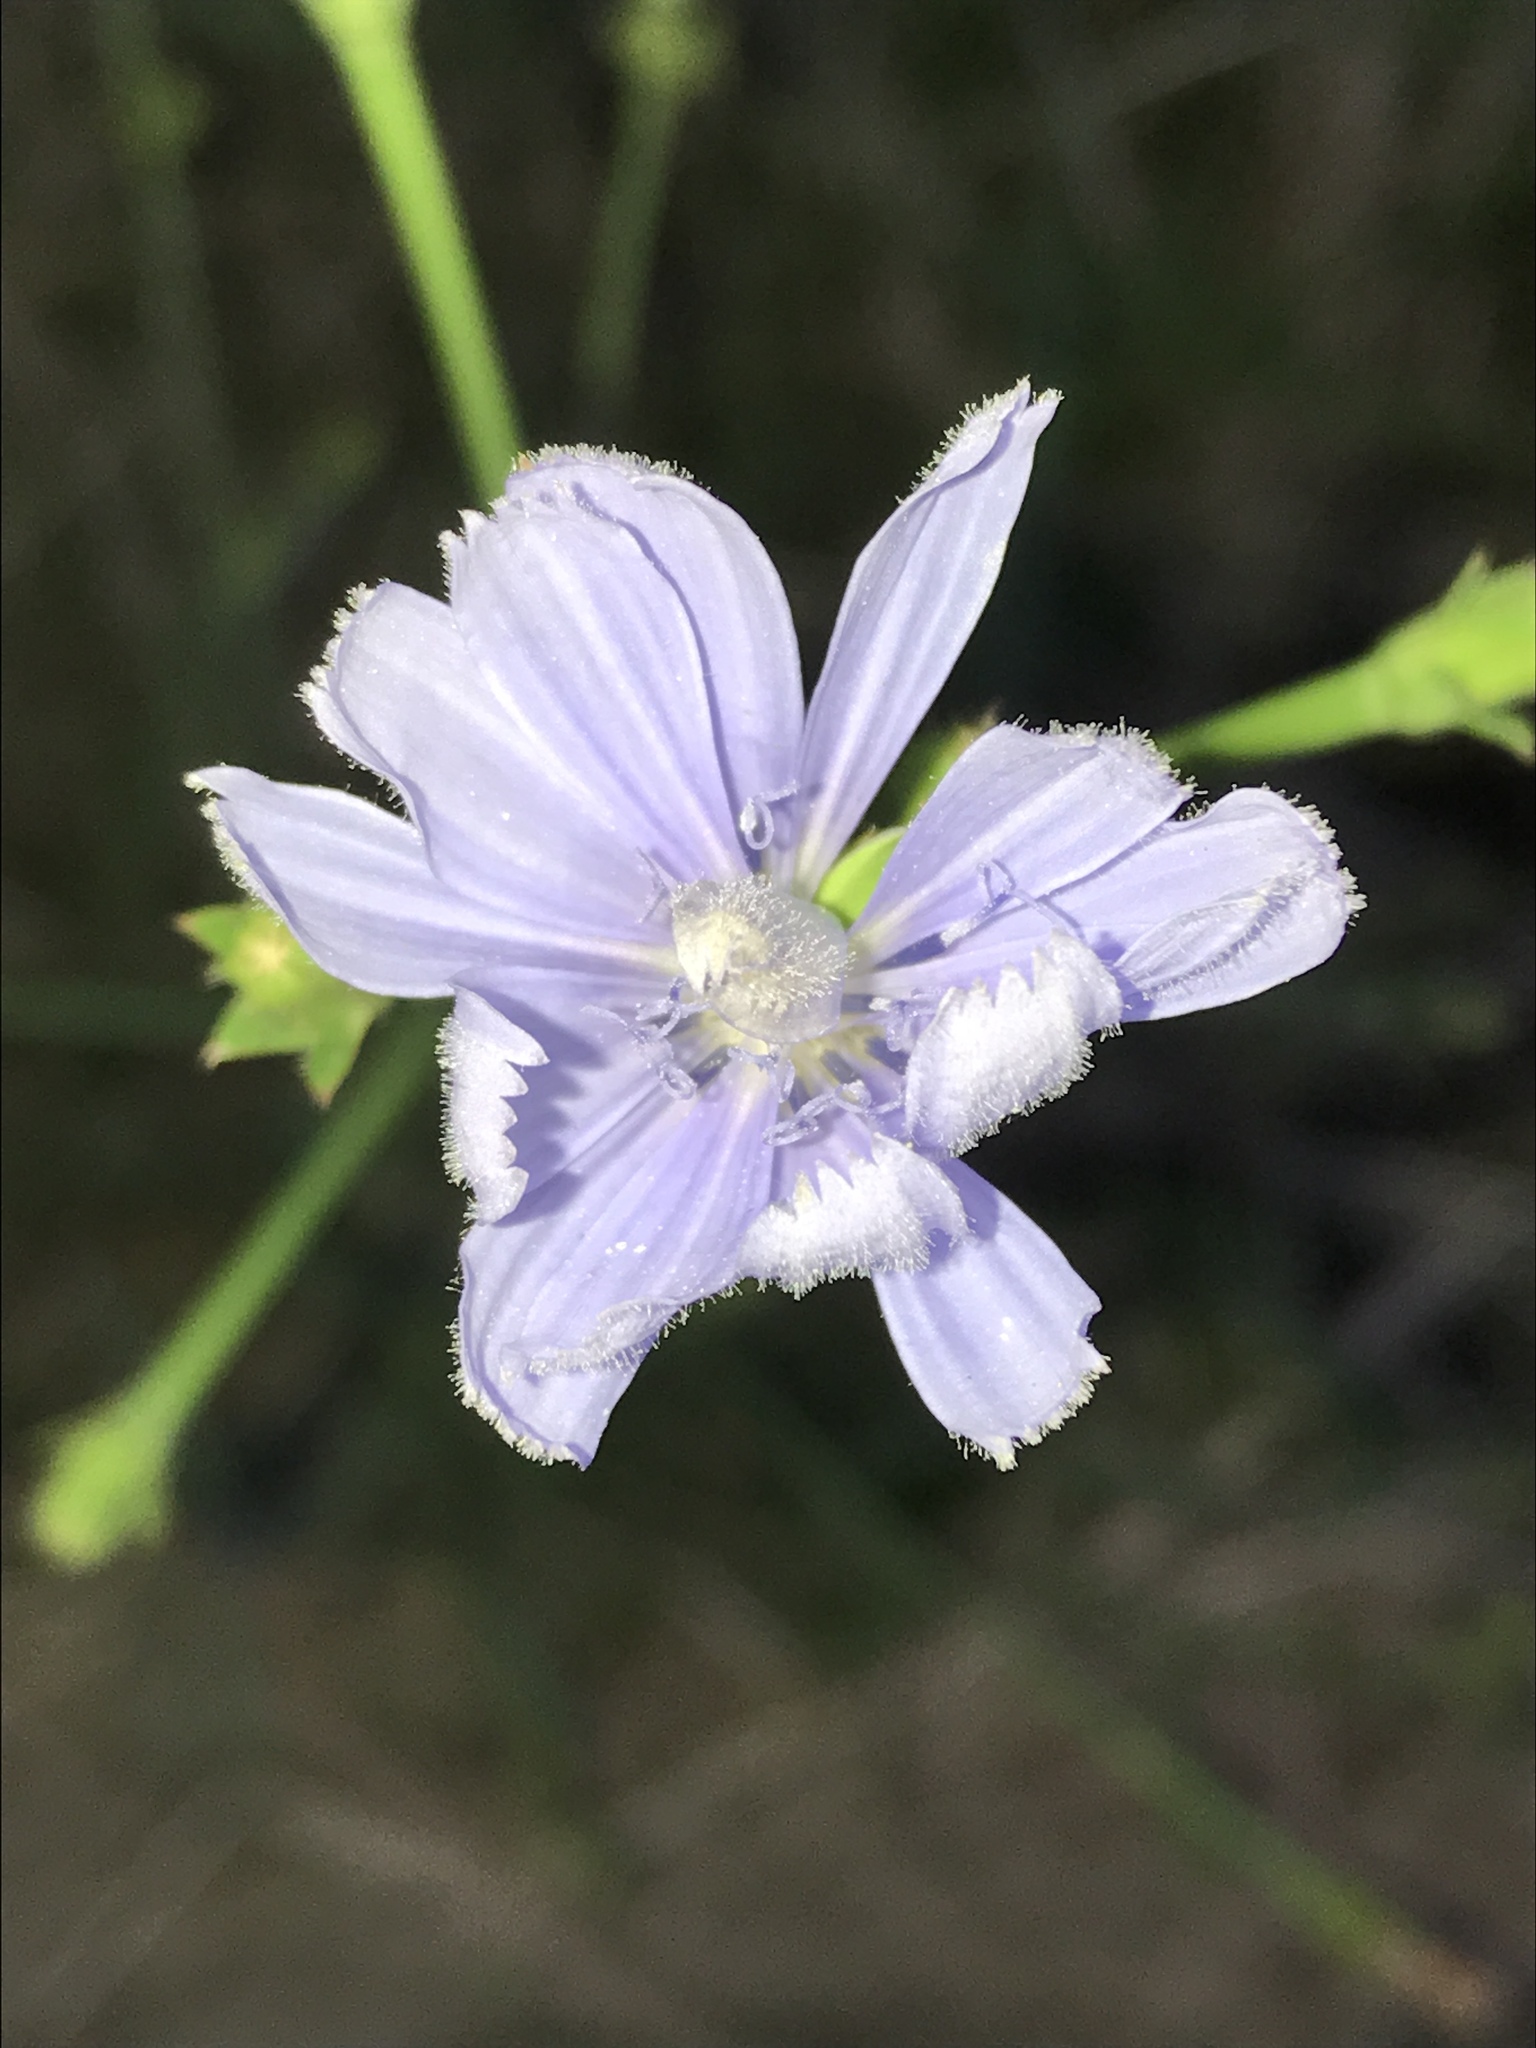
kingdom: Plantae
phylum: Tracheophyta
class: Magnoliopsida
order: Asterales
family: Asteraceae
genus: Cichorium
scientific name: Cichorium intybus
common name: Chicory
